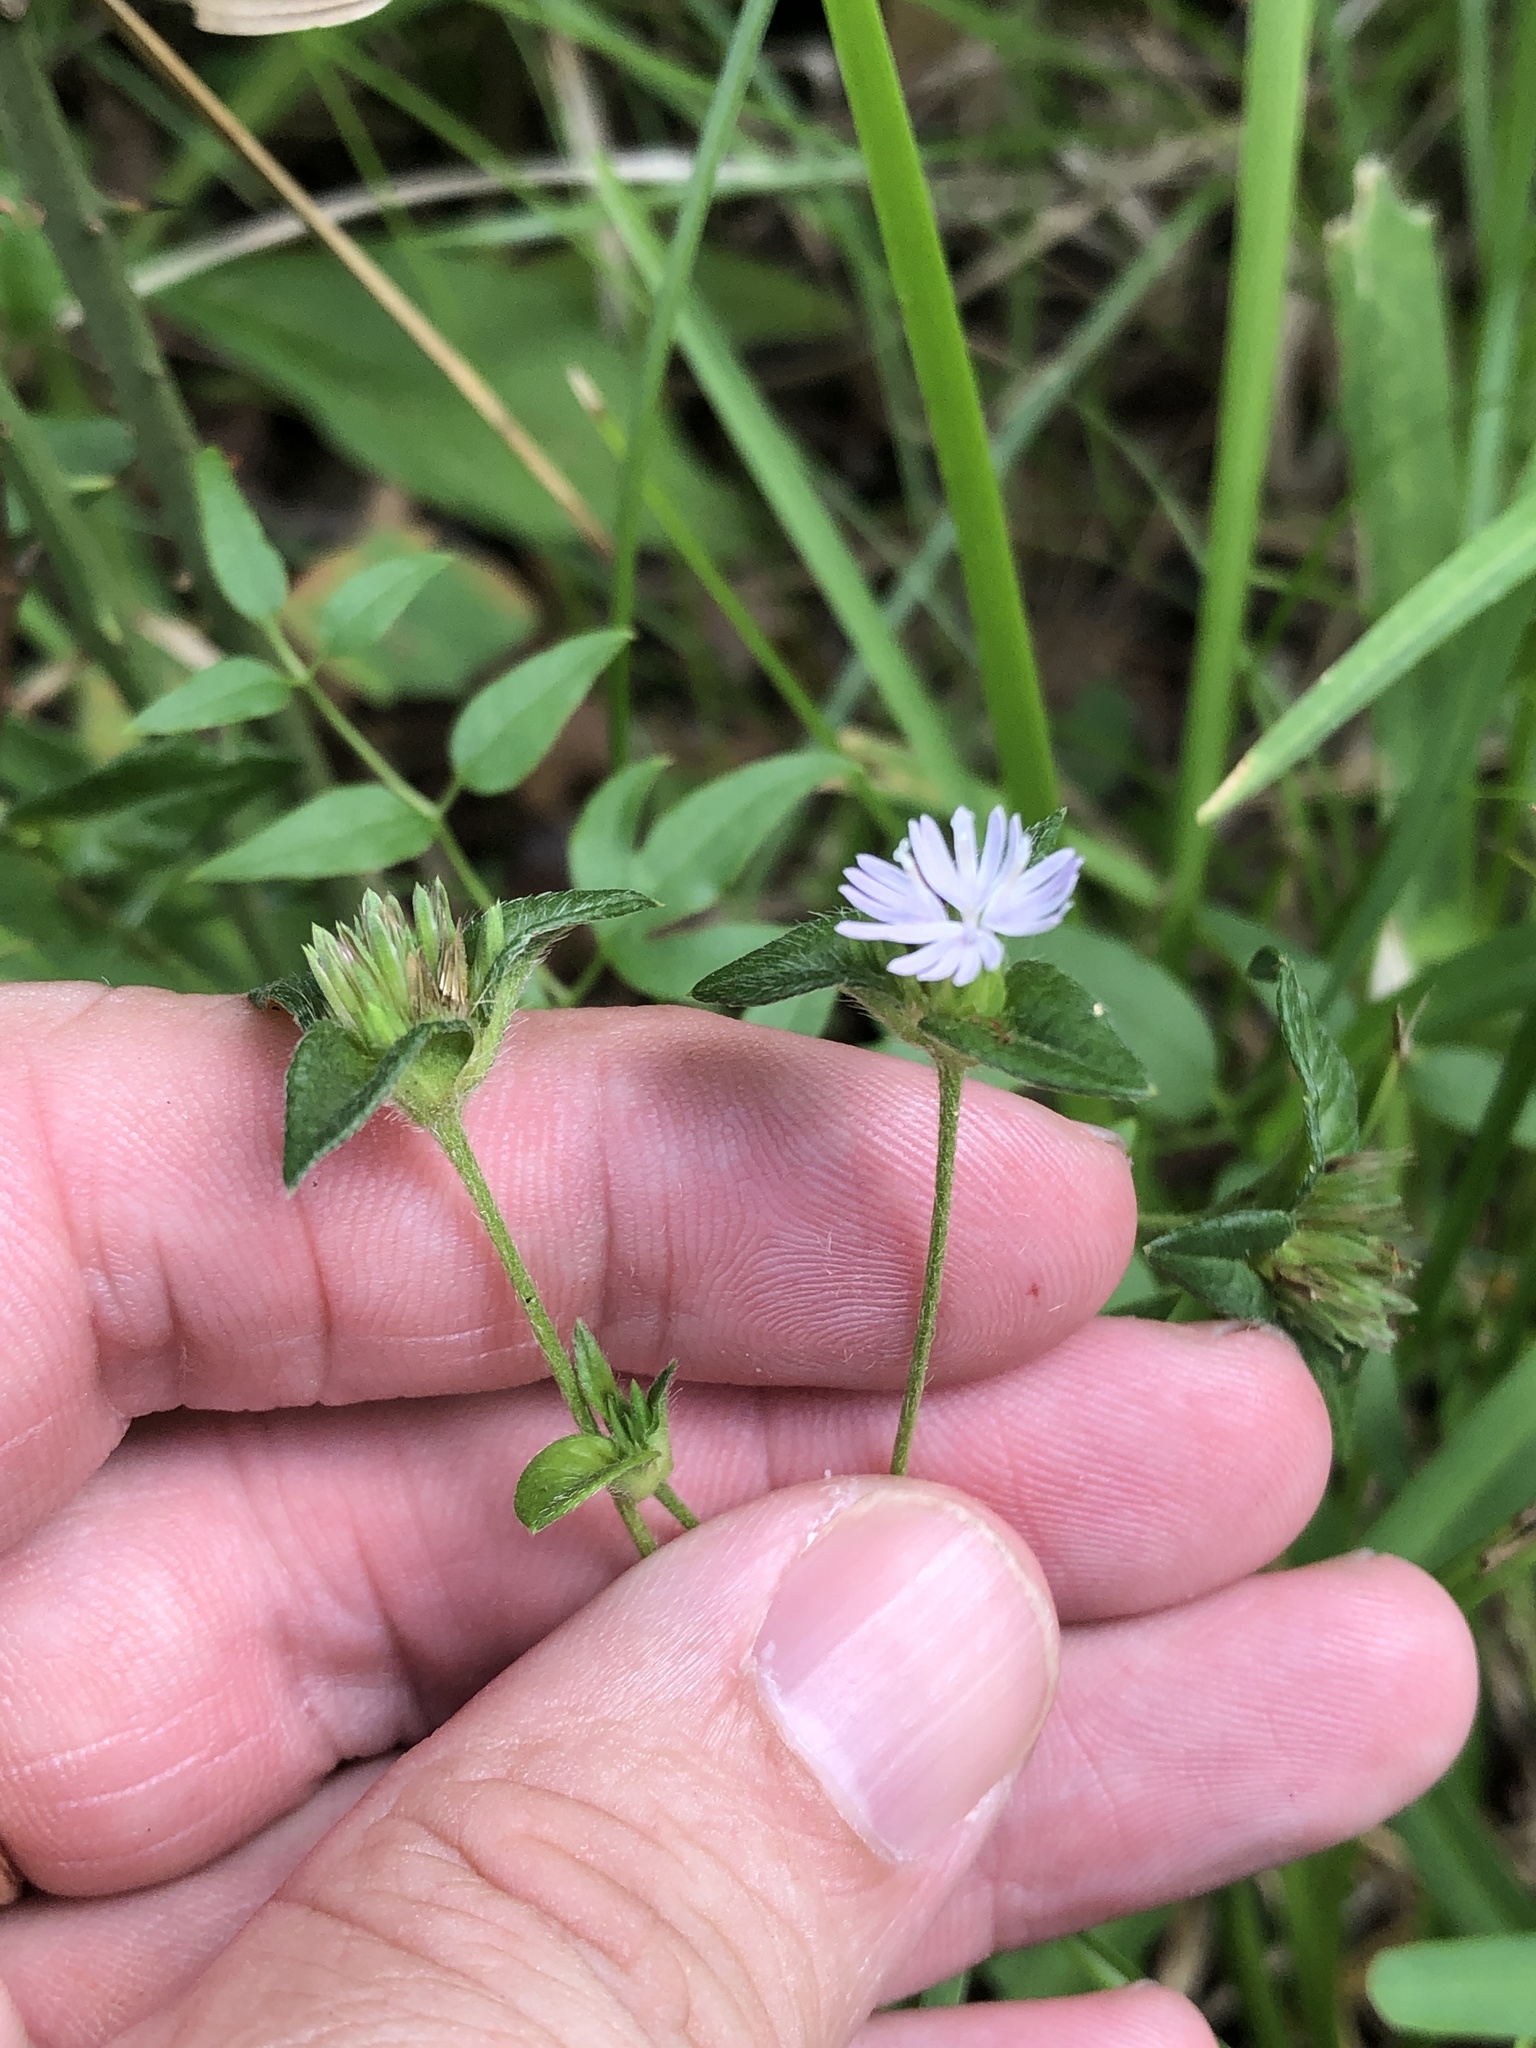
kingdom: Plantae
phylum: Tracheophyta
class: Magnoliopsida
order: Asterales
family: Asteraceae
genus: Elephantopus
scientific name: Elephantopus carolinianus
